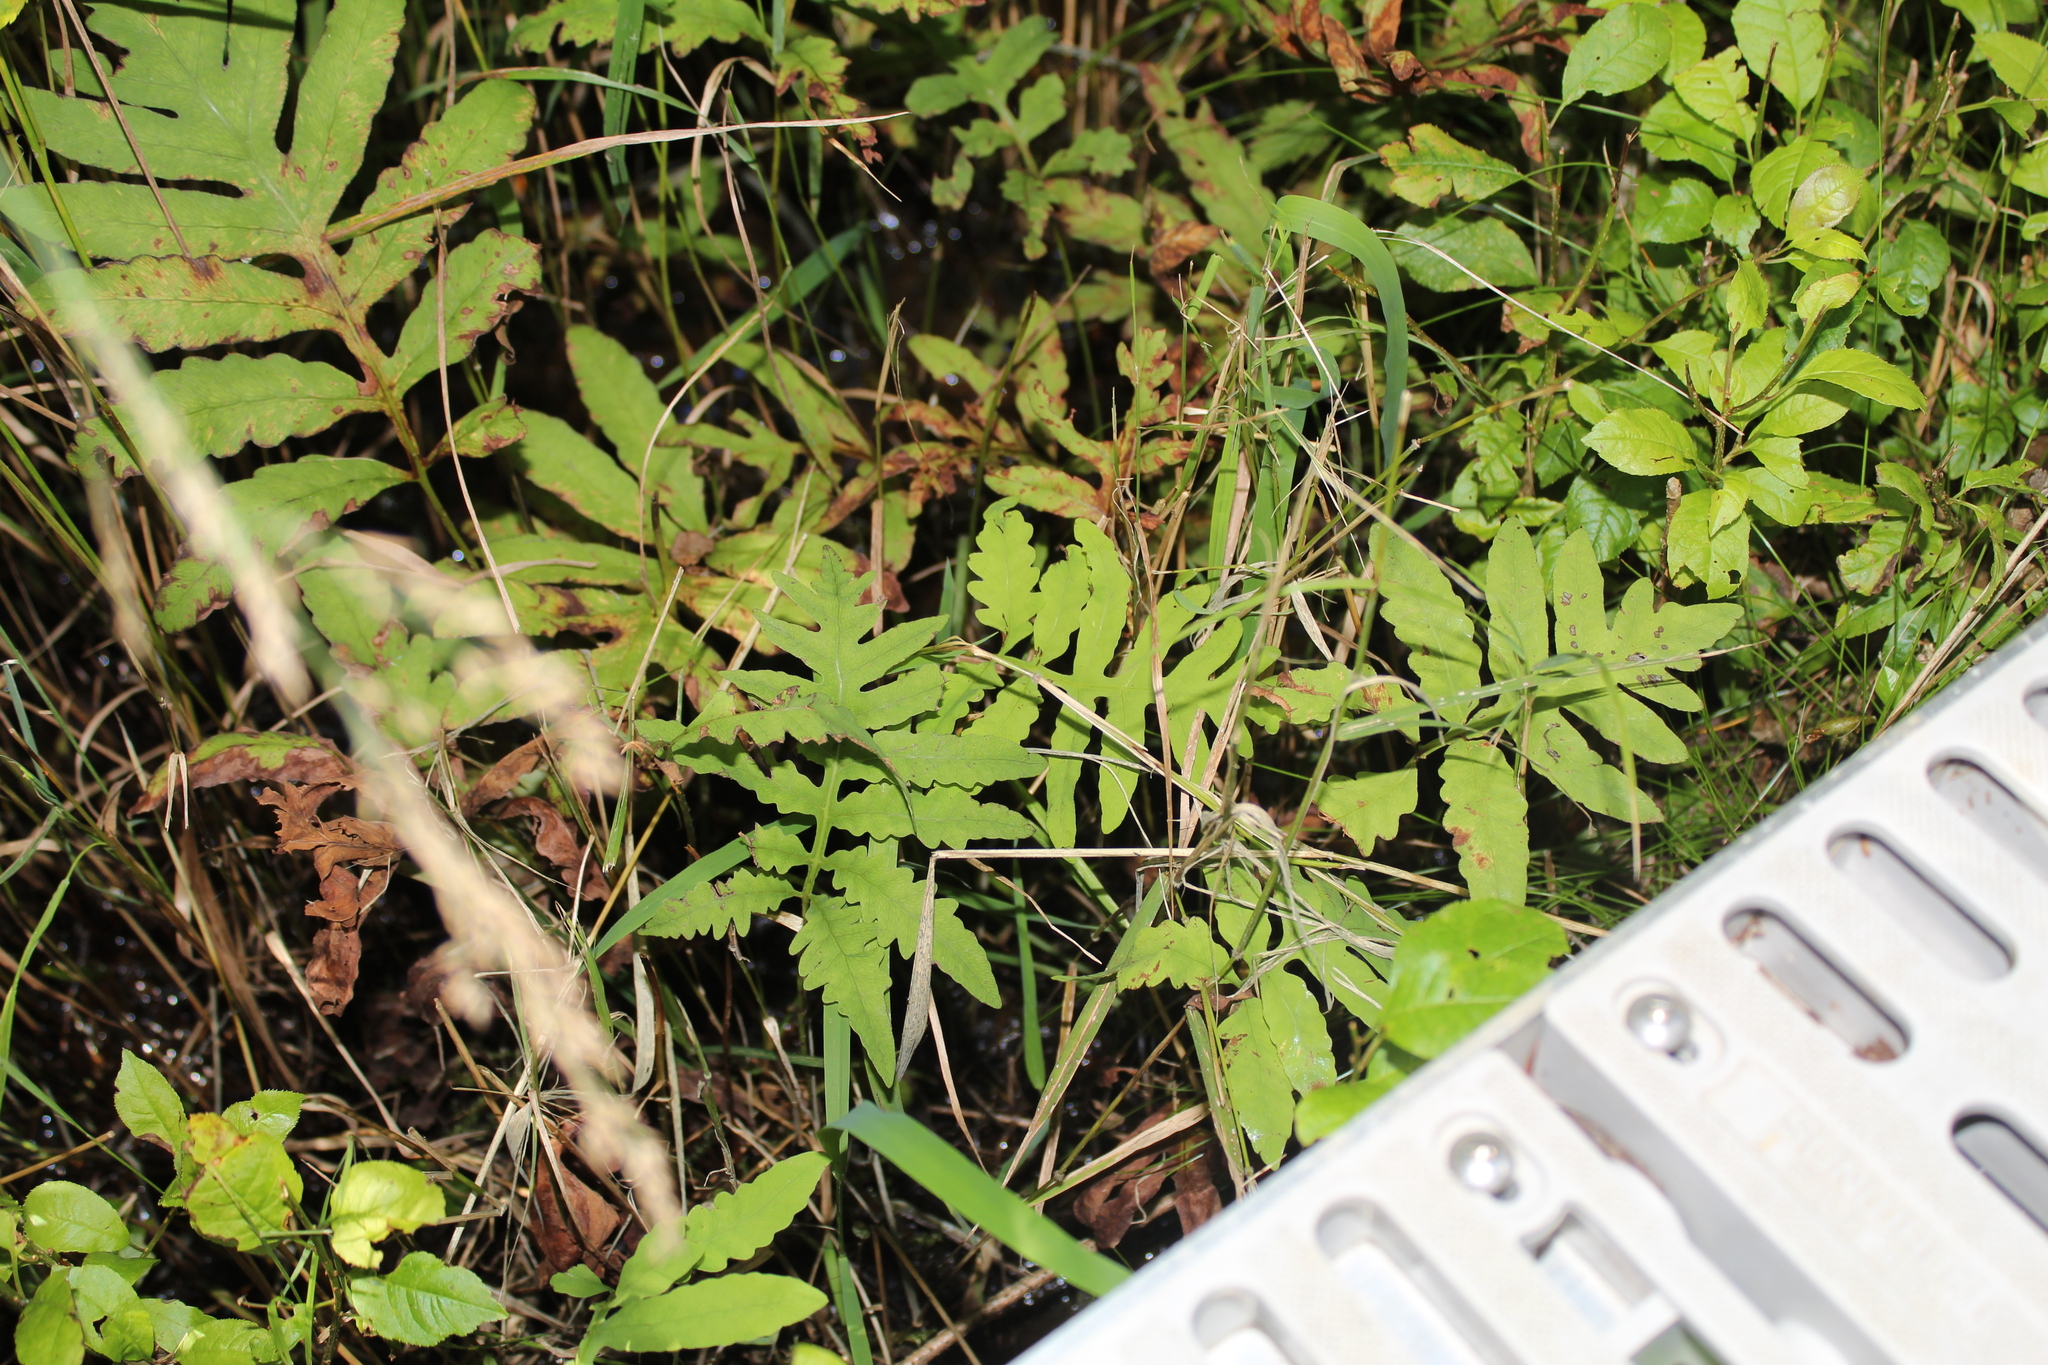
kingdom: Plantae
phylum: Tracheophyta
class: Polypodiopsida
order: Polypodiales
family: Onocleaceae
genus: Onoclea
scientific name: Onoclea sensibilis
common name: Sensitive fern
